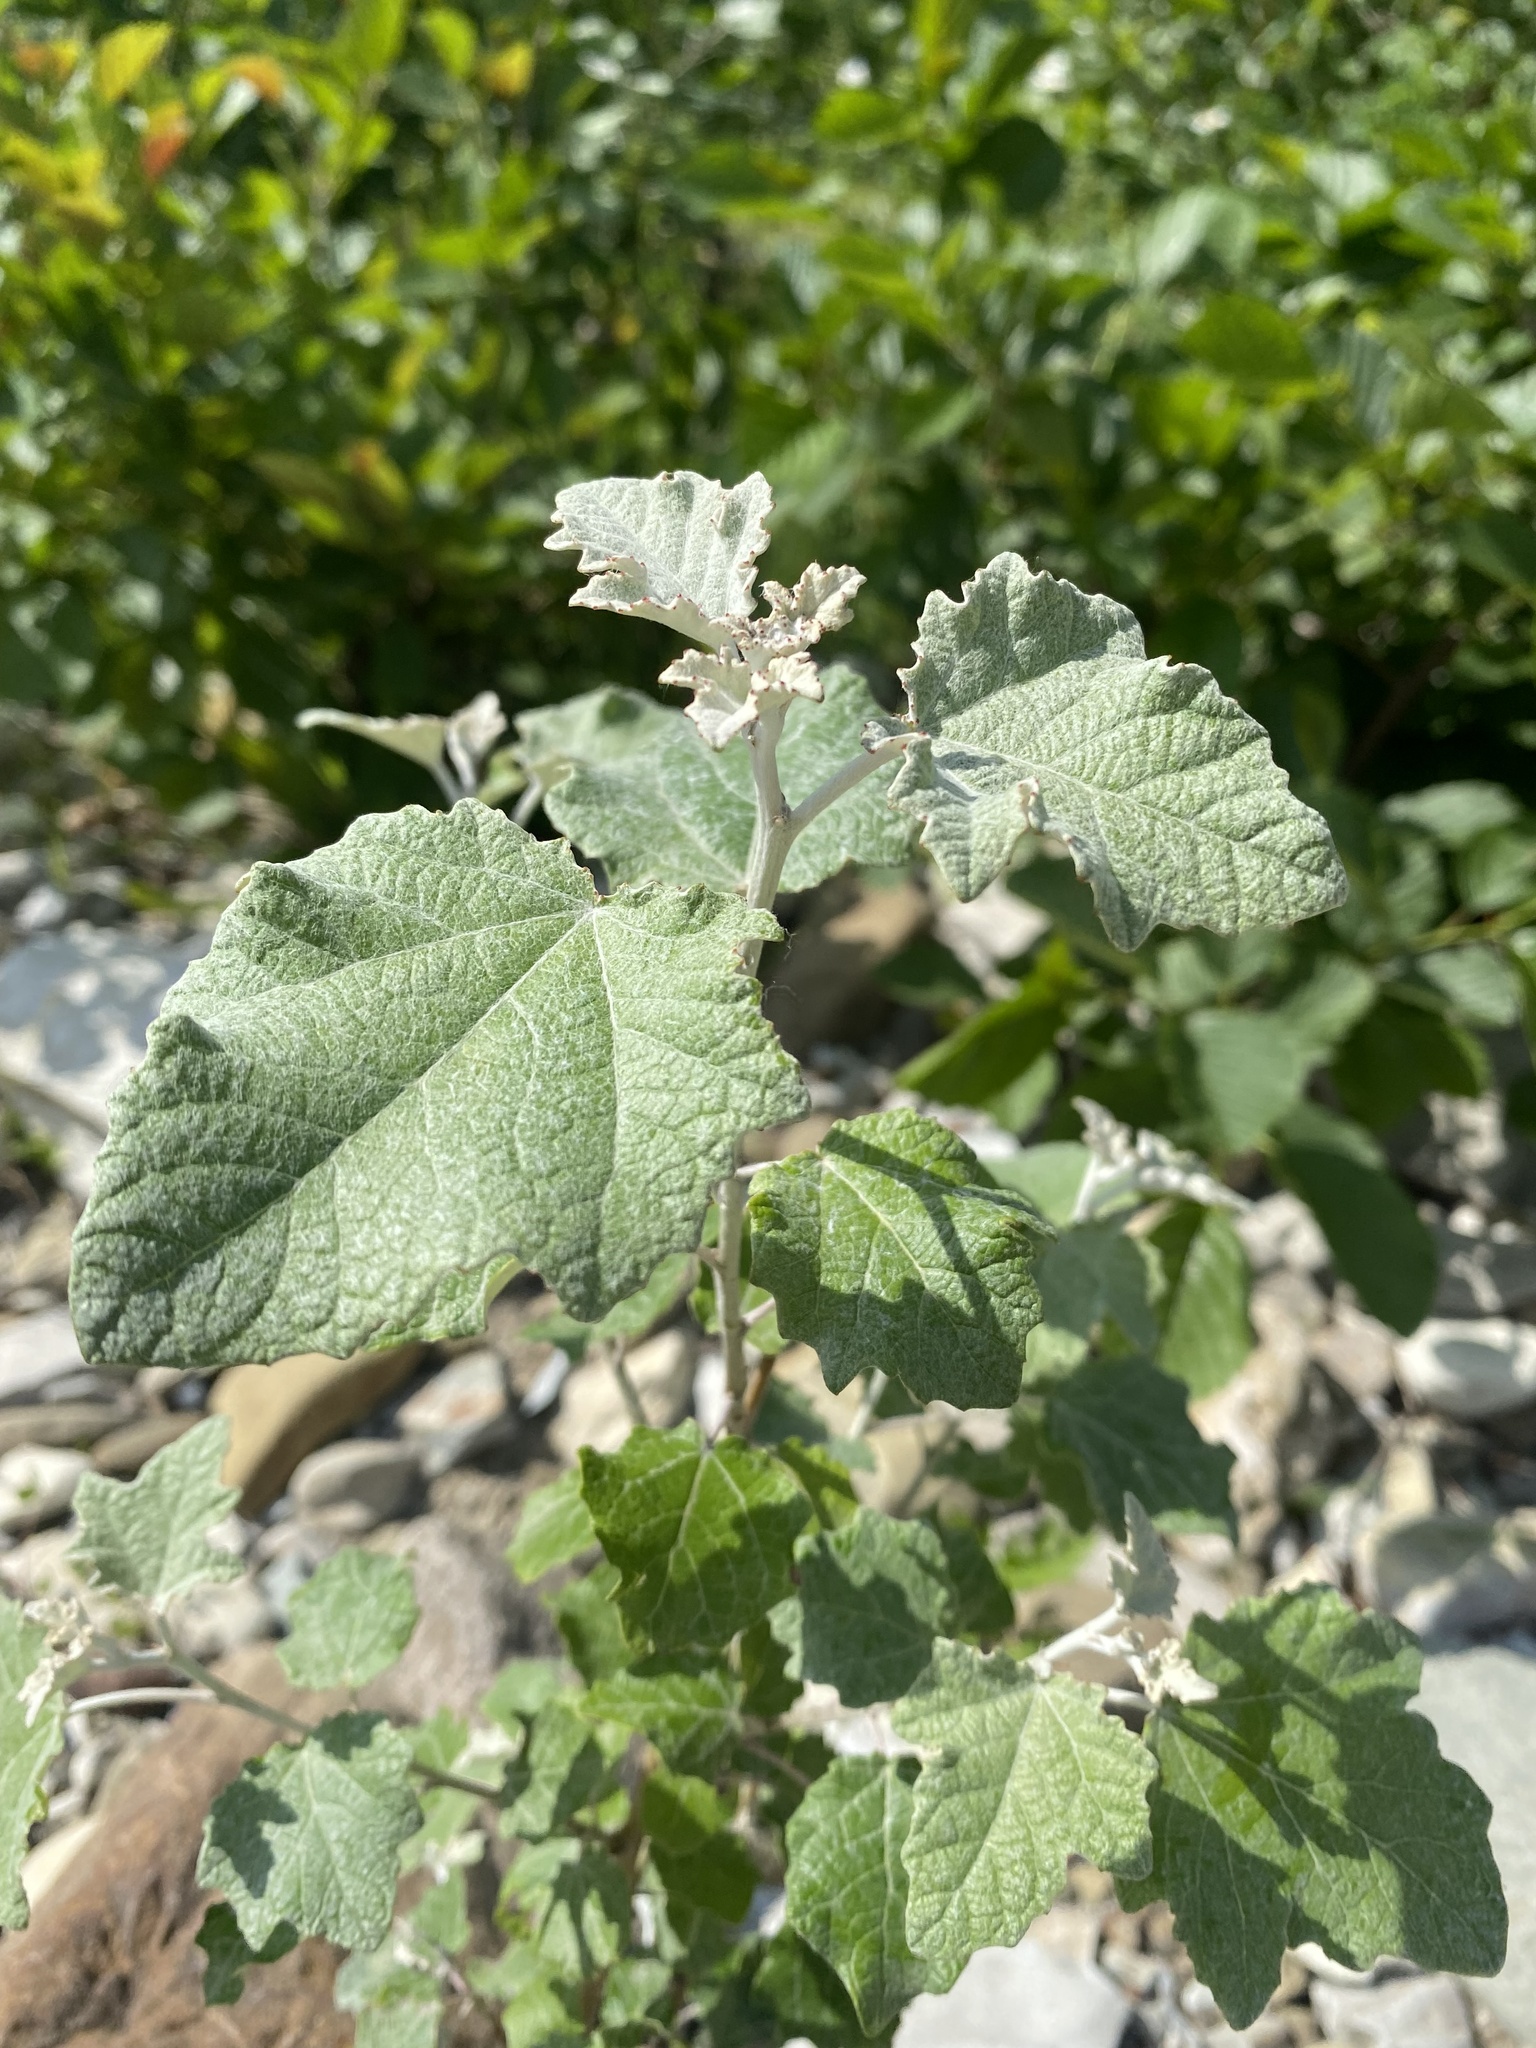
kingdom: Plantae
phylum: Tracheophyta
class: Magnoliopsida
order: Malpighiales
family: Salicaceae
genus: Populus
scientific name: Populus alba
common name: White poplar
